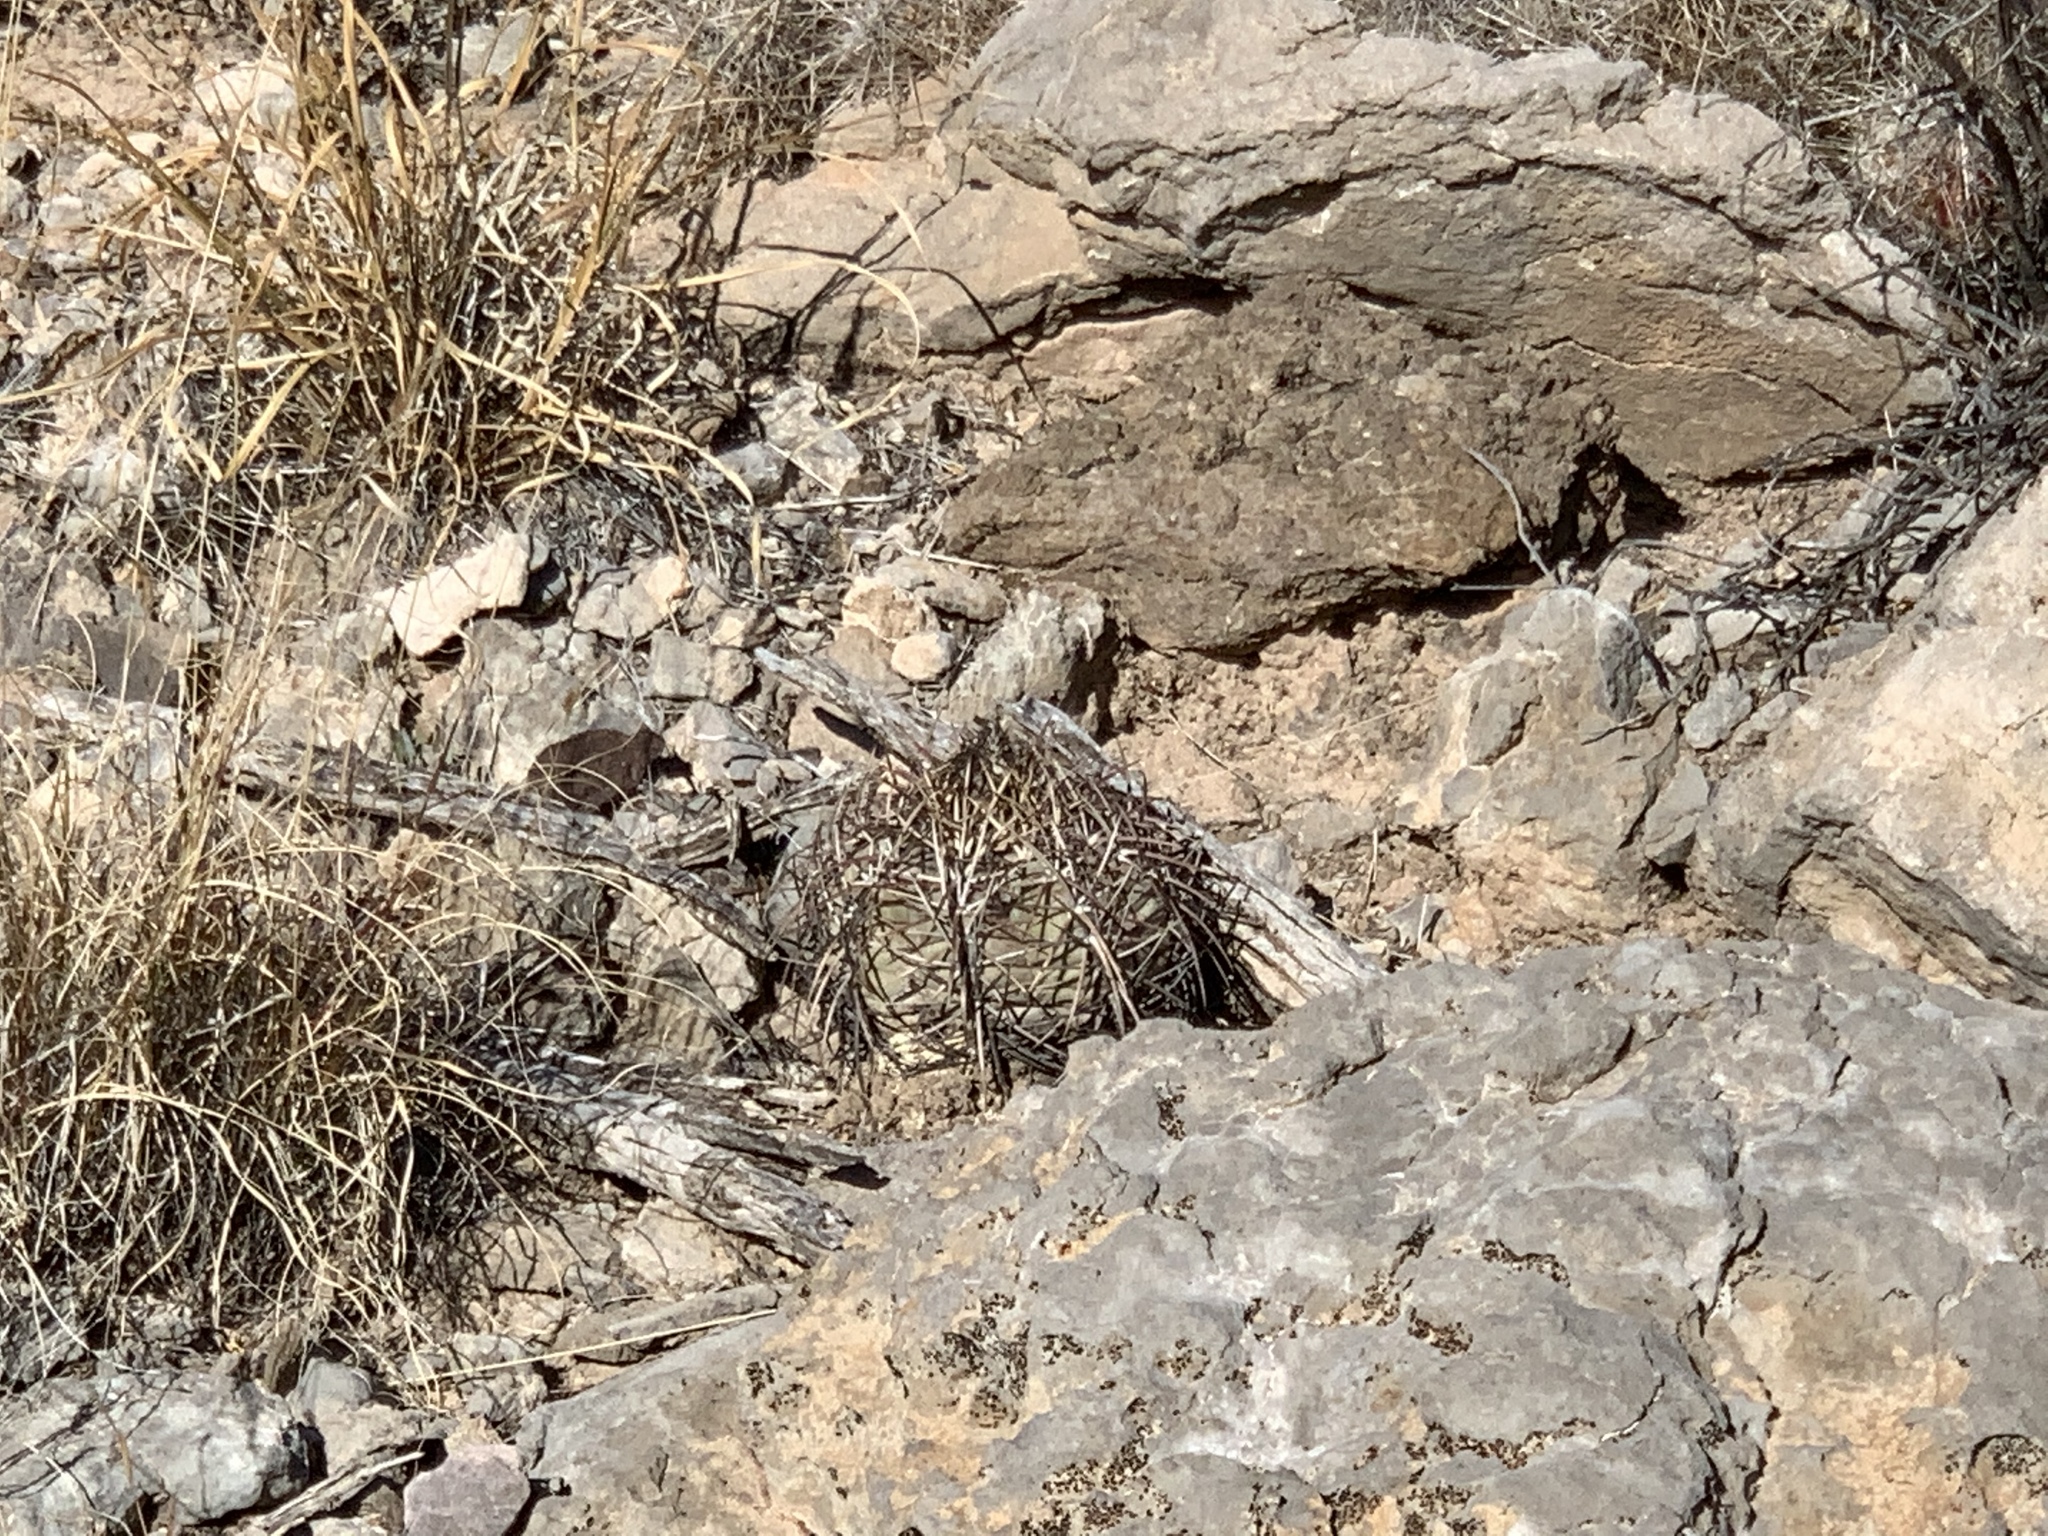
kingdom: Plantae
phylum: Tracheophyta
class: Magnoliopsida
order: Caryophyllales
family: Cactaceae
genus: Echinocactus
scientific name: Echinocactus horizonthalonius
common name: Devilshead
